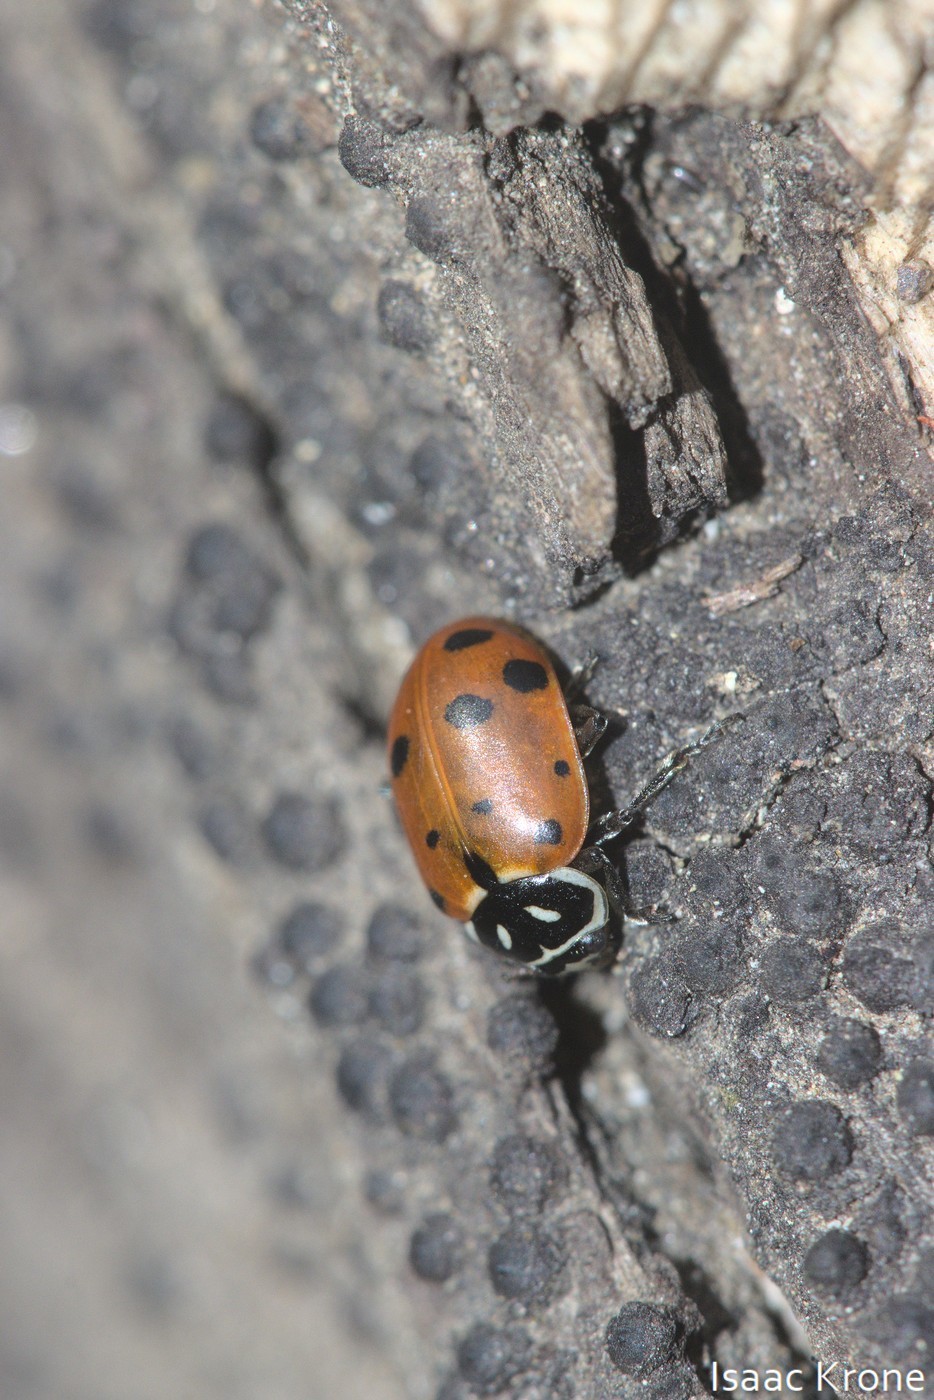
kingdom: Animalia
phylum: Arthropoda
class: Insecta
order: Coleoptera
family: Coccinellidae
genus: Hippodamia
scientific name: Hippodamia convergens
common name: Convergent lady beetle
